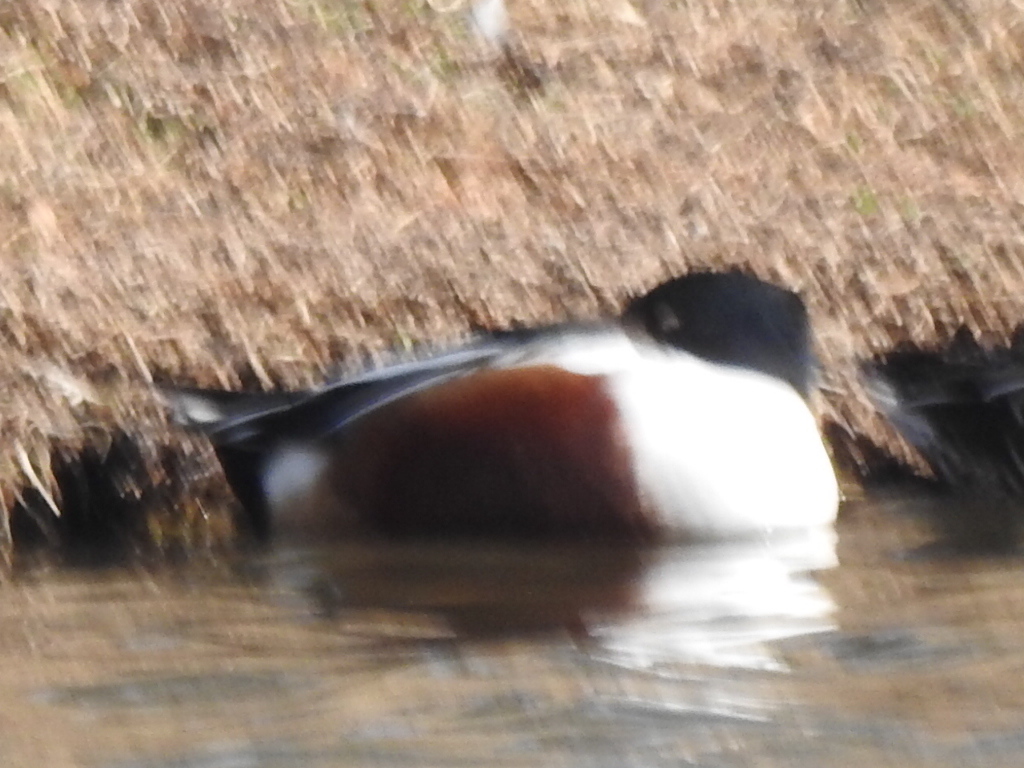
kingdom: Animalia
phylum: Chordata
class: Aves
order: Anseriformes
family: Anatidae
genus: Spatula
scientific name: Spatula clypeata
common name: Northern shoveler
